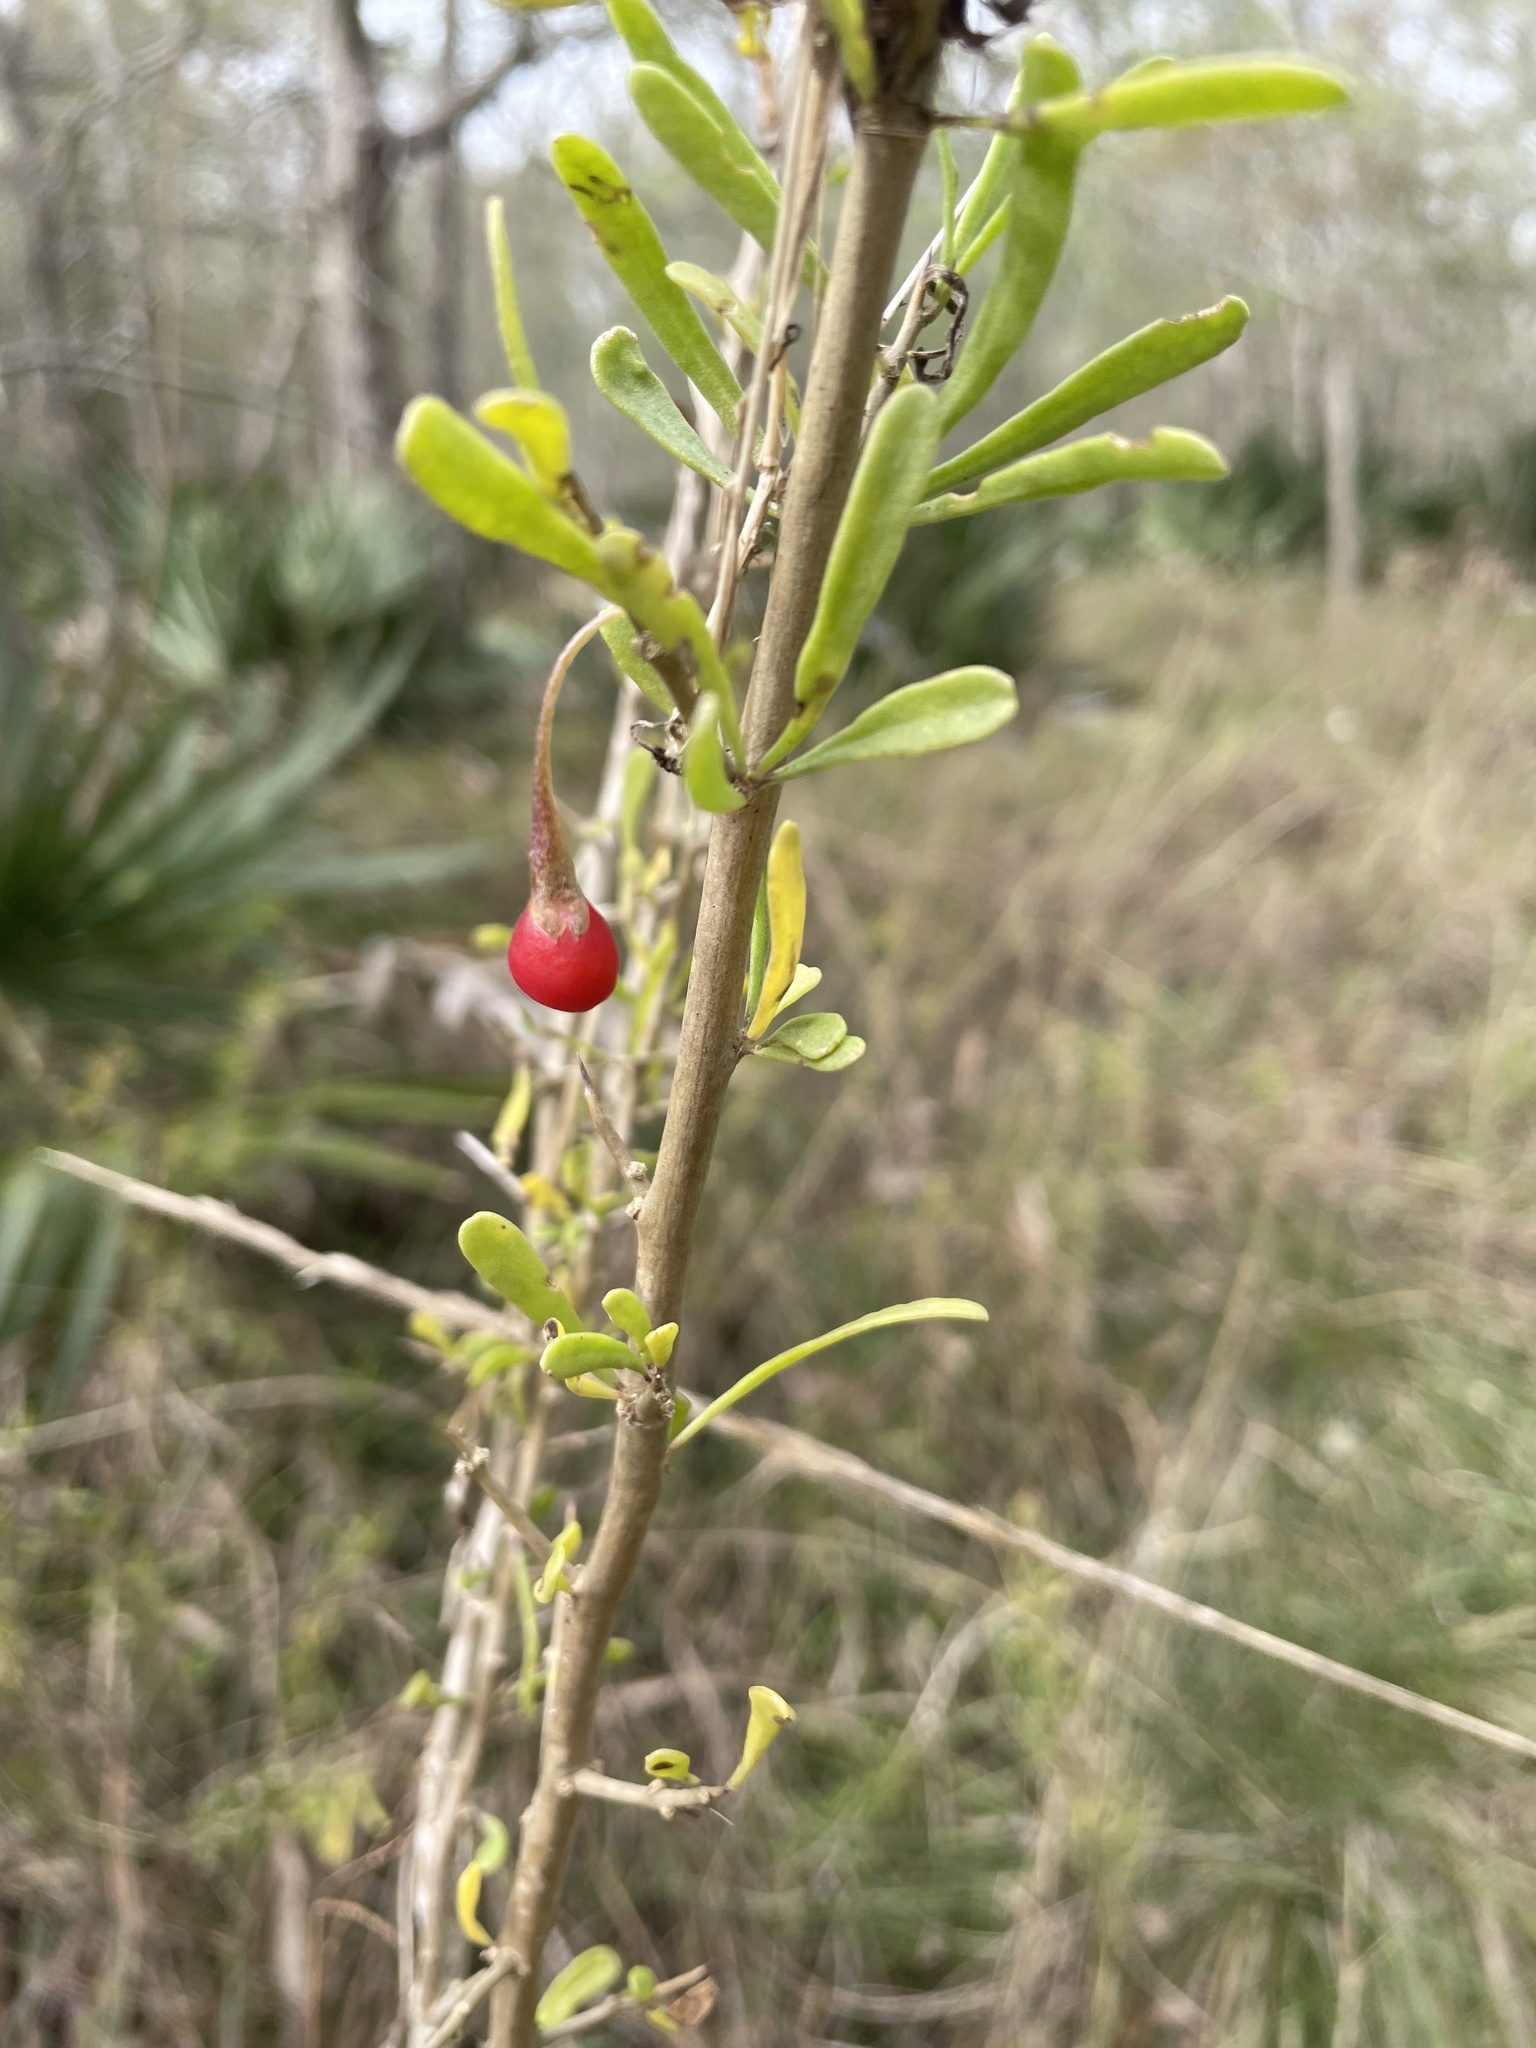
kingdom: Plantae
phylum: Tracheophyta
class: Magnoliopsida
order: Solanales
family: Solanaceae
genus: Lycium
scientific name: Lycium carolinianum
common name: Christmasberry
